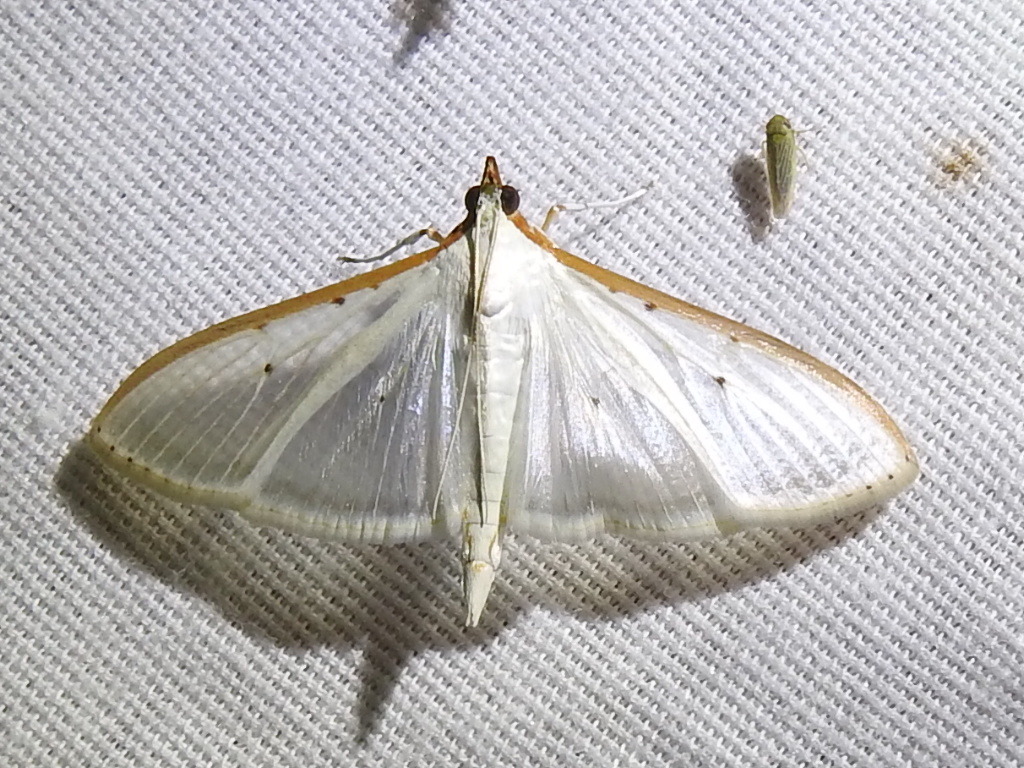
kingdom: Animalia
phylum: Arthropoda
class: Insecta
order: Lepidoptera
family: Crambidae
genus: Palpita
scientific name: Palpita quadristigmalis
